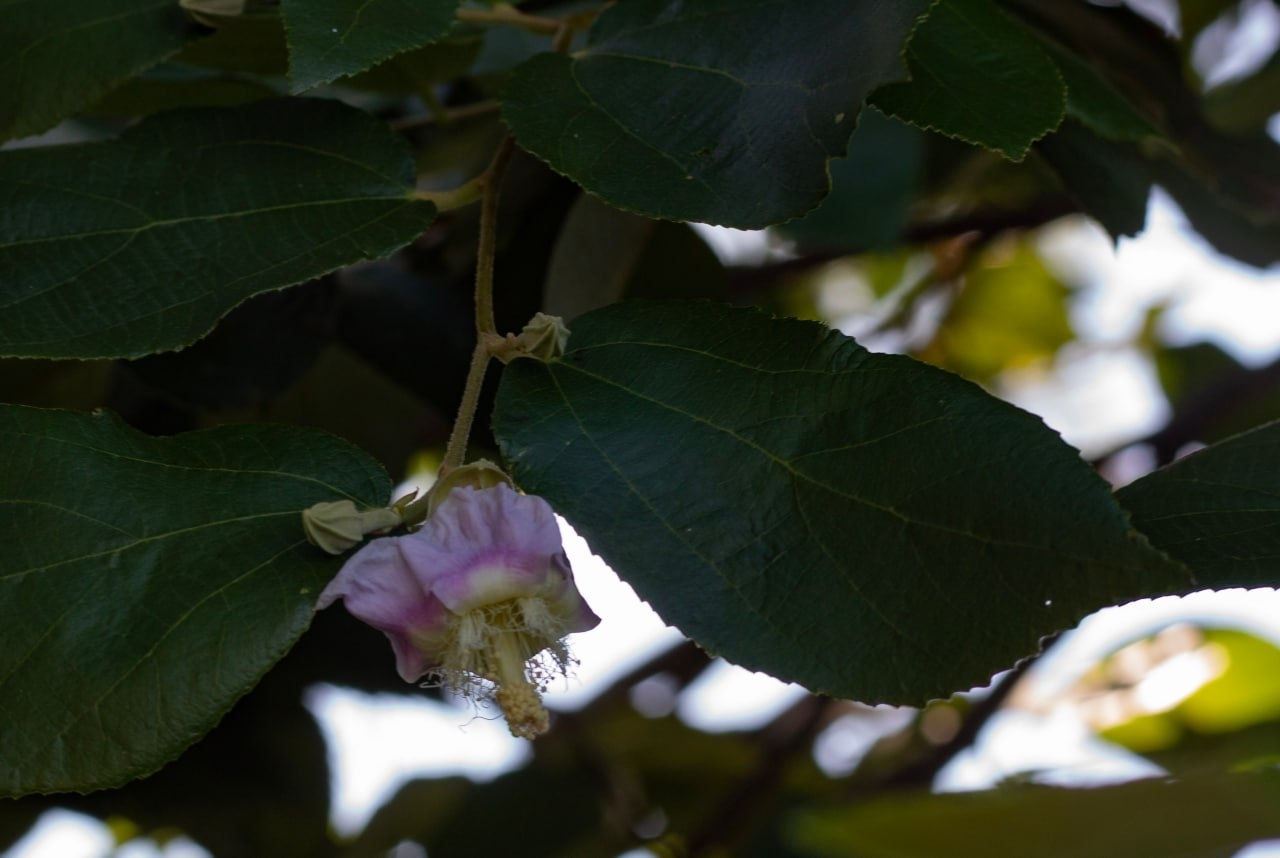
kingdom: Plantae
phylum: Tracheophyta
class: Magnoliopsida
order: Malvales
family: Malvaceae
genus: Luehea
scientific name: Luehea divaricata
